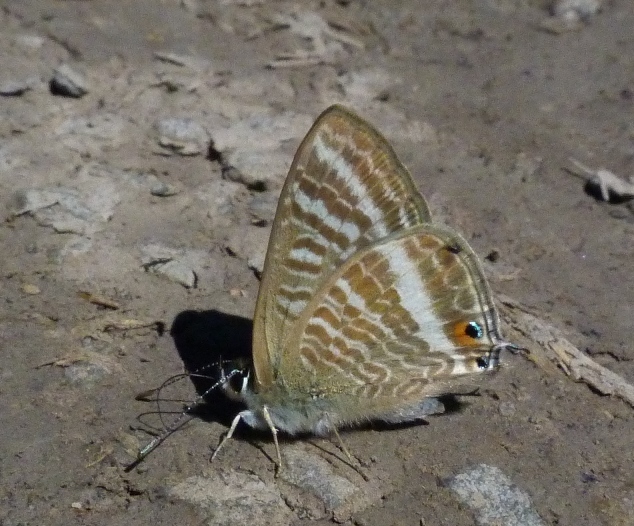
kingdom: Animalia
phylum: Arthropoda
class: Insecta
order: Lepidoptera
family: Lycaenidae
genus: Lampides
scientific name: Lampides boeticus
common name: Long-tailed blue
